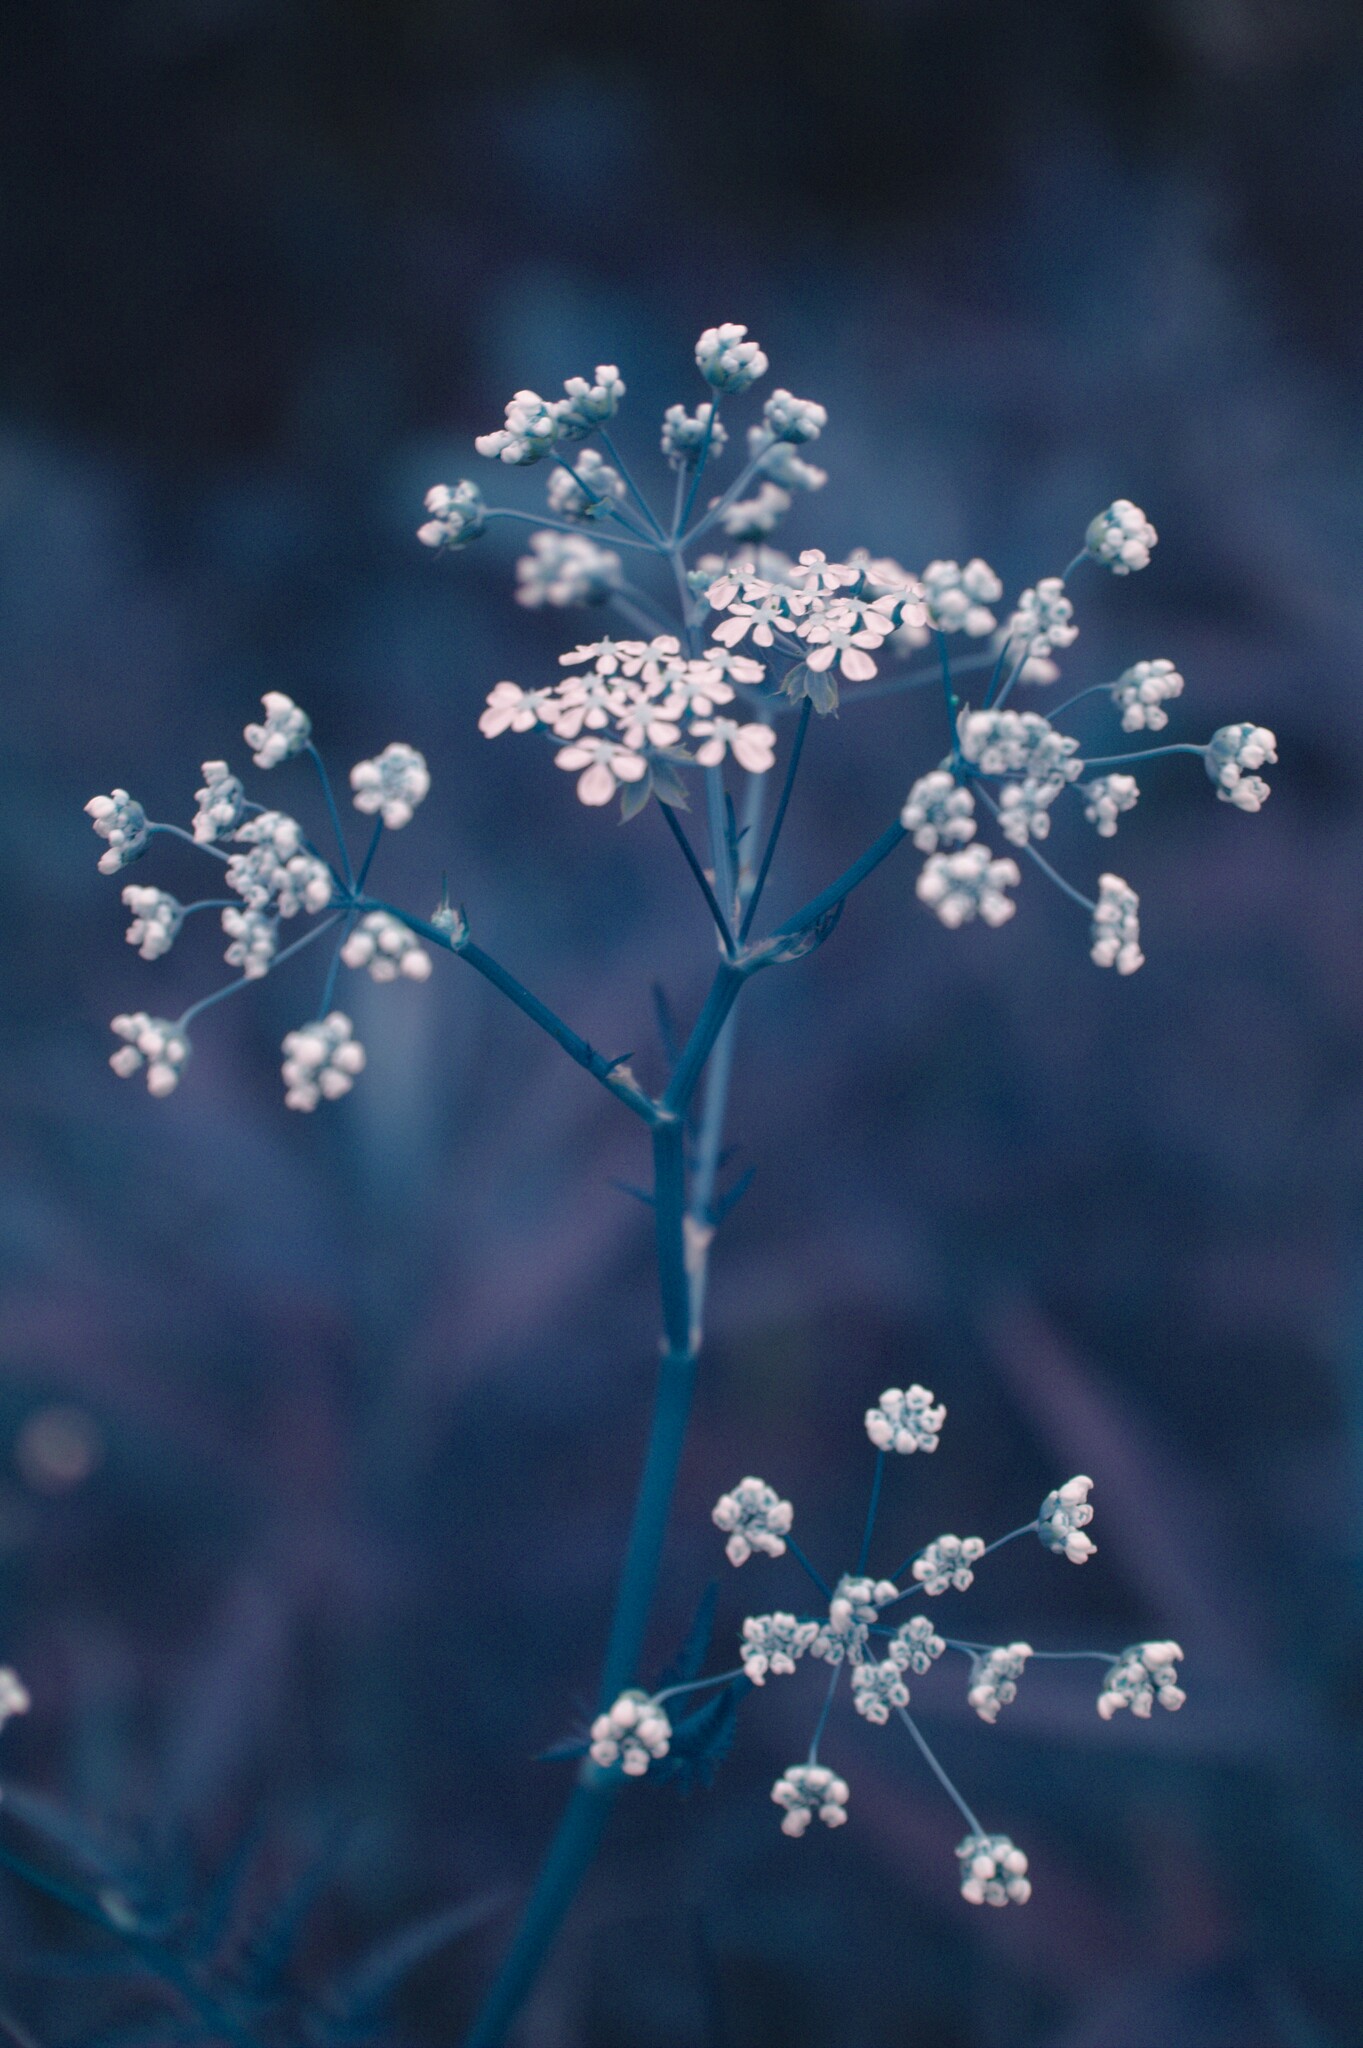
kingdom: Plantae
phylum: Tracheophyta
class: Magnoliopsida
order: Apiales
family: Apiaceae
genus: Anthriscus
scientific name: Anthriscus sylvestris
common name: Cow parsley
